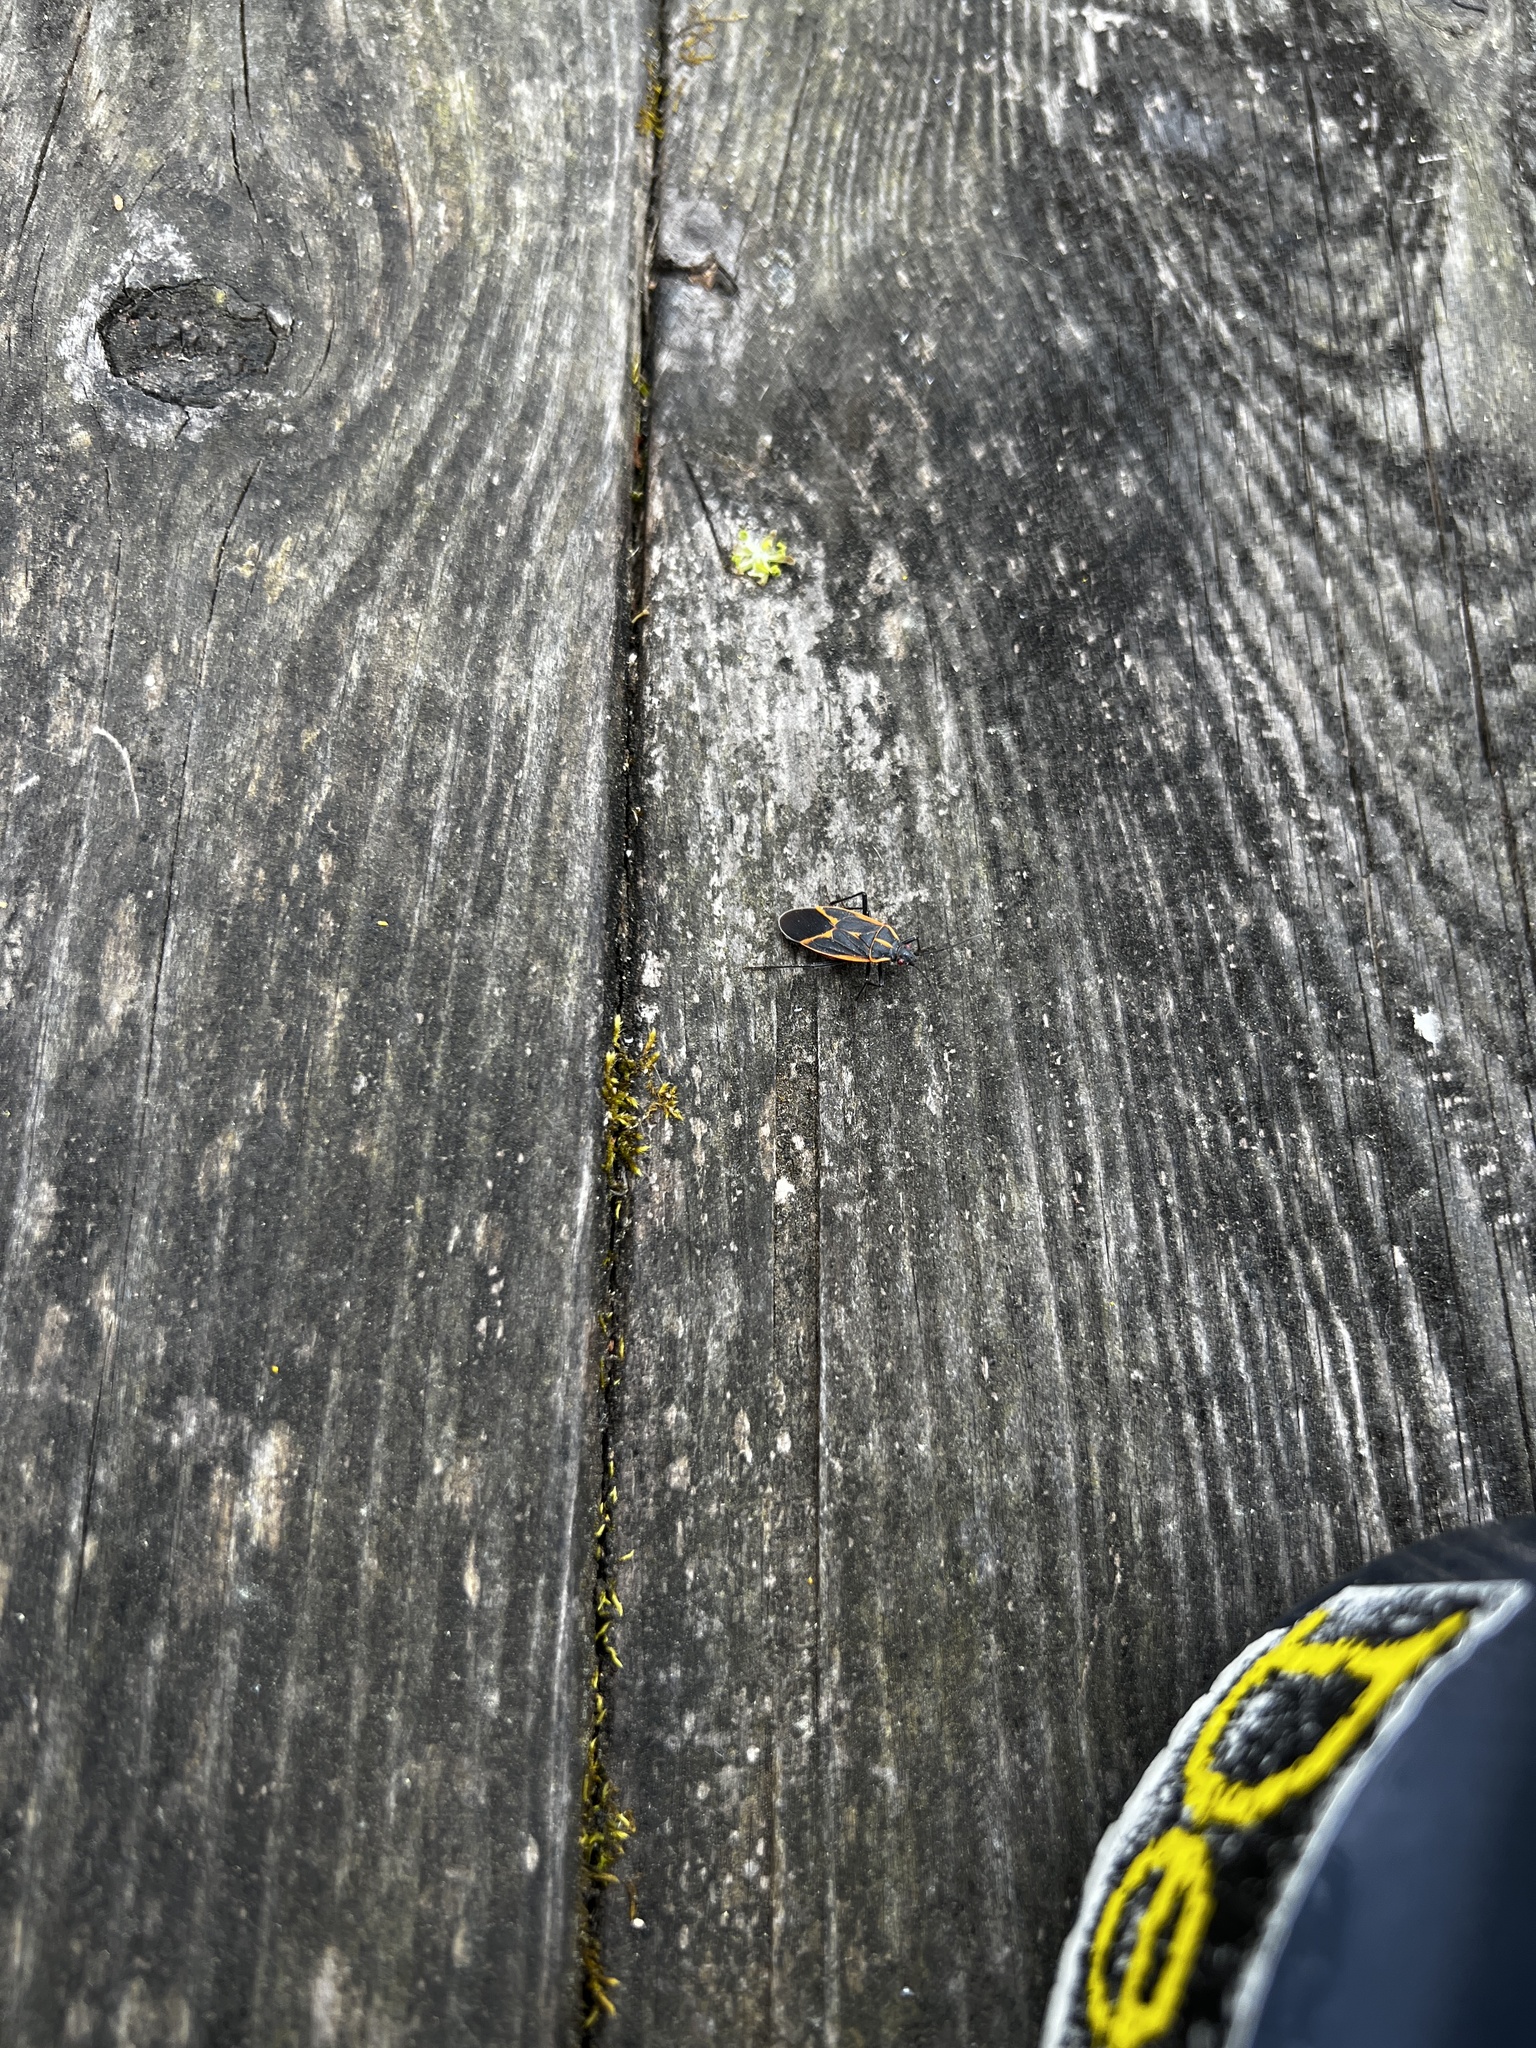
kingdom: Animalia
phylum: Arthropoda
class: Insecta
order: Hemiptera
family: Rhopalidae
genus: Boisea
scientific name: Boisea trivittata
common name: Boxelder bug
